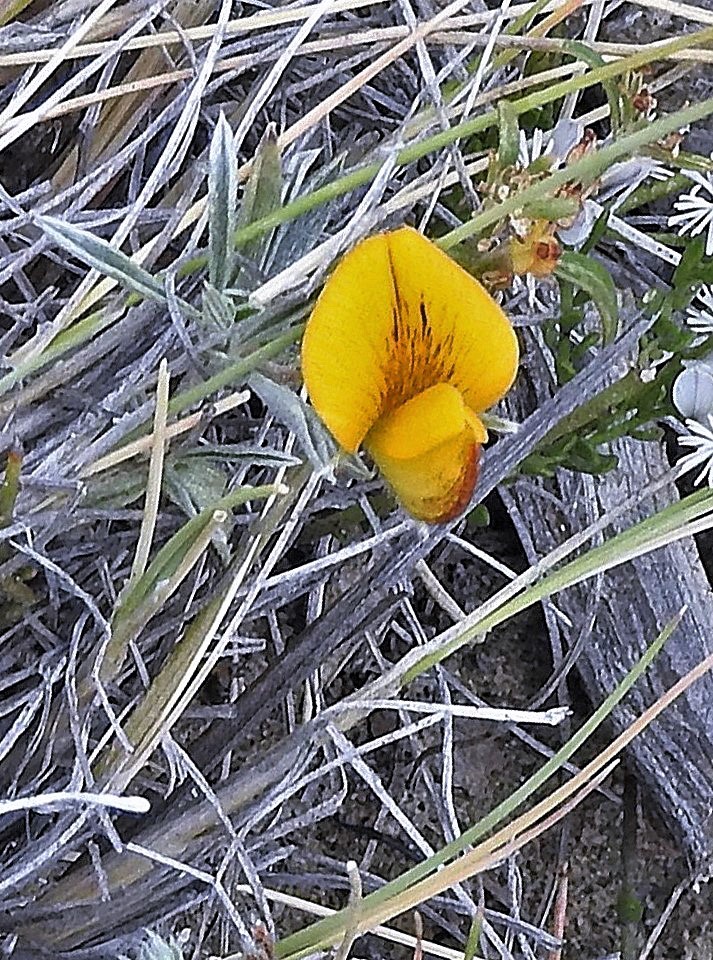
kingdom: Plantae
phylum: Tracheophyta
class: Magnoliopsida
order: Fabales
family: Fabaceae
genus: Adesmia
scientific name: Adesmia lotoides
